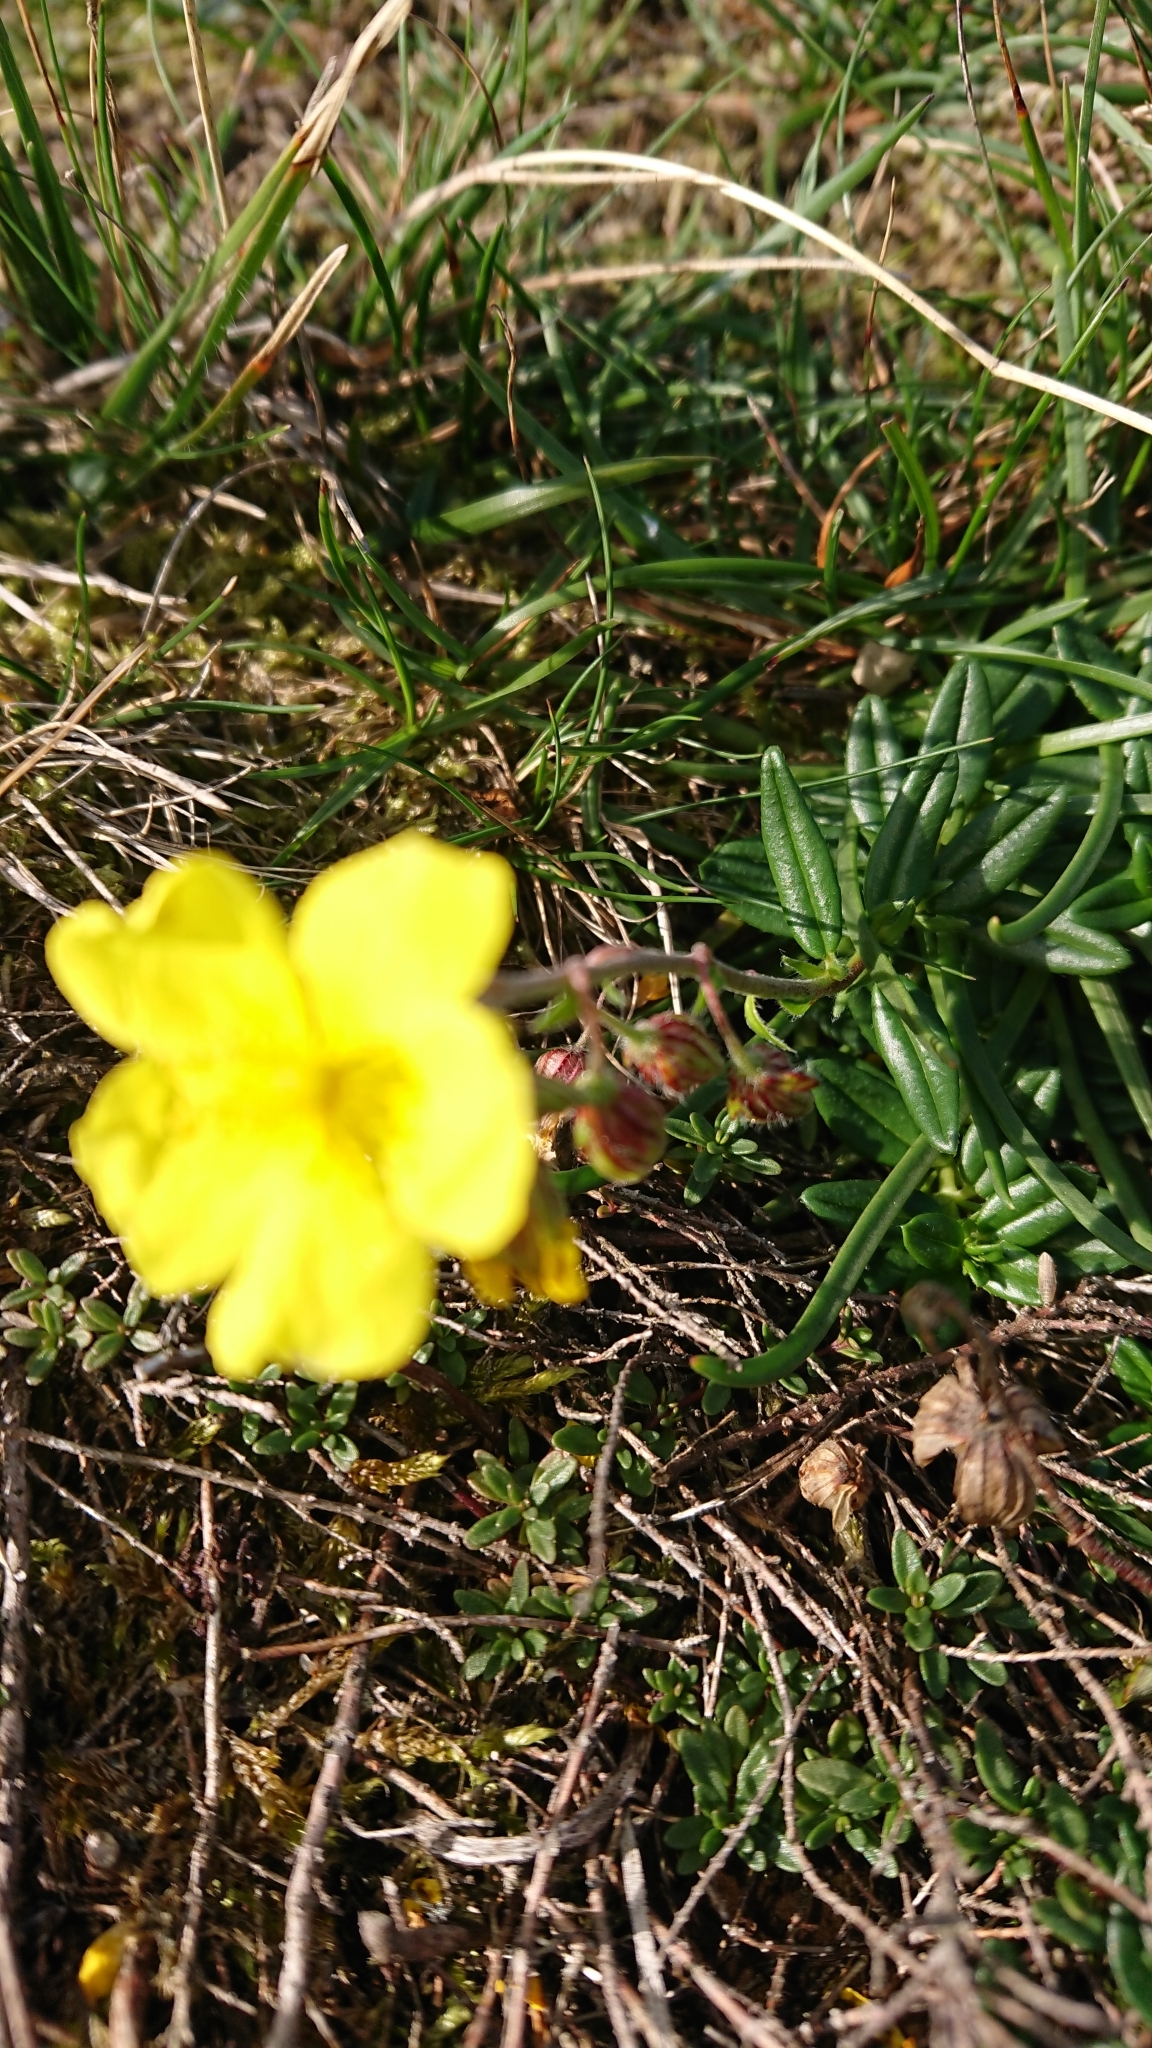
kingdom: Plantae
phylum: Tracheophyta
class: Magnoliopsida
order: Malvales
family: Cistaceae
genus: Helianthemum
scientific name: Helianthemum nummularium
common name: Common rock-rose
